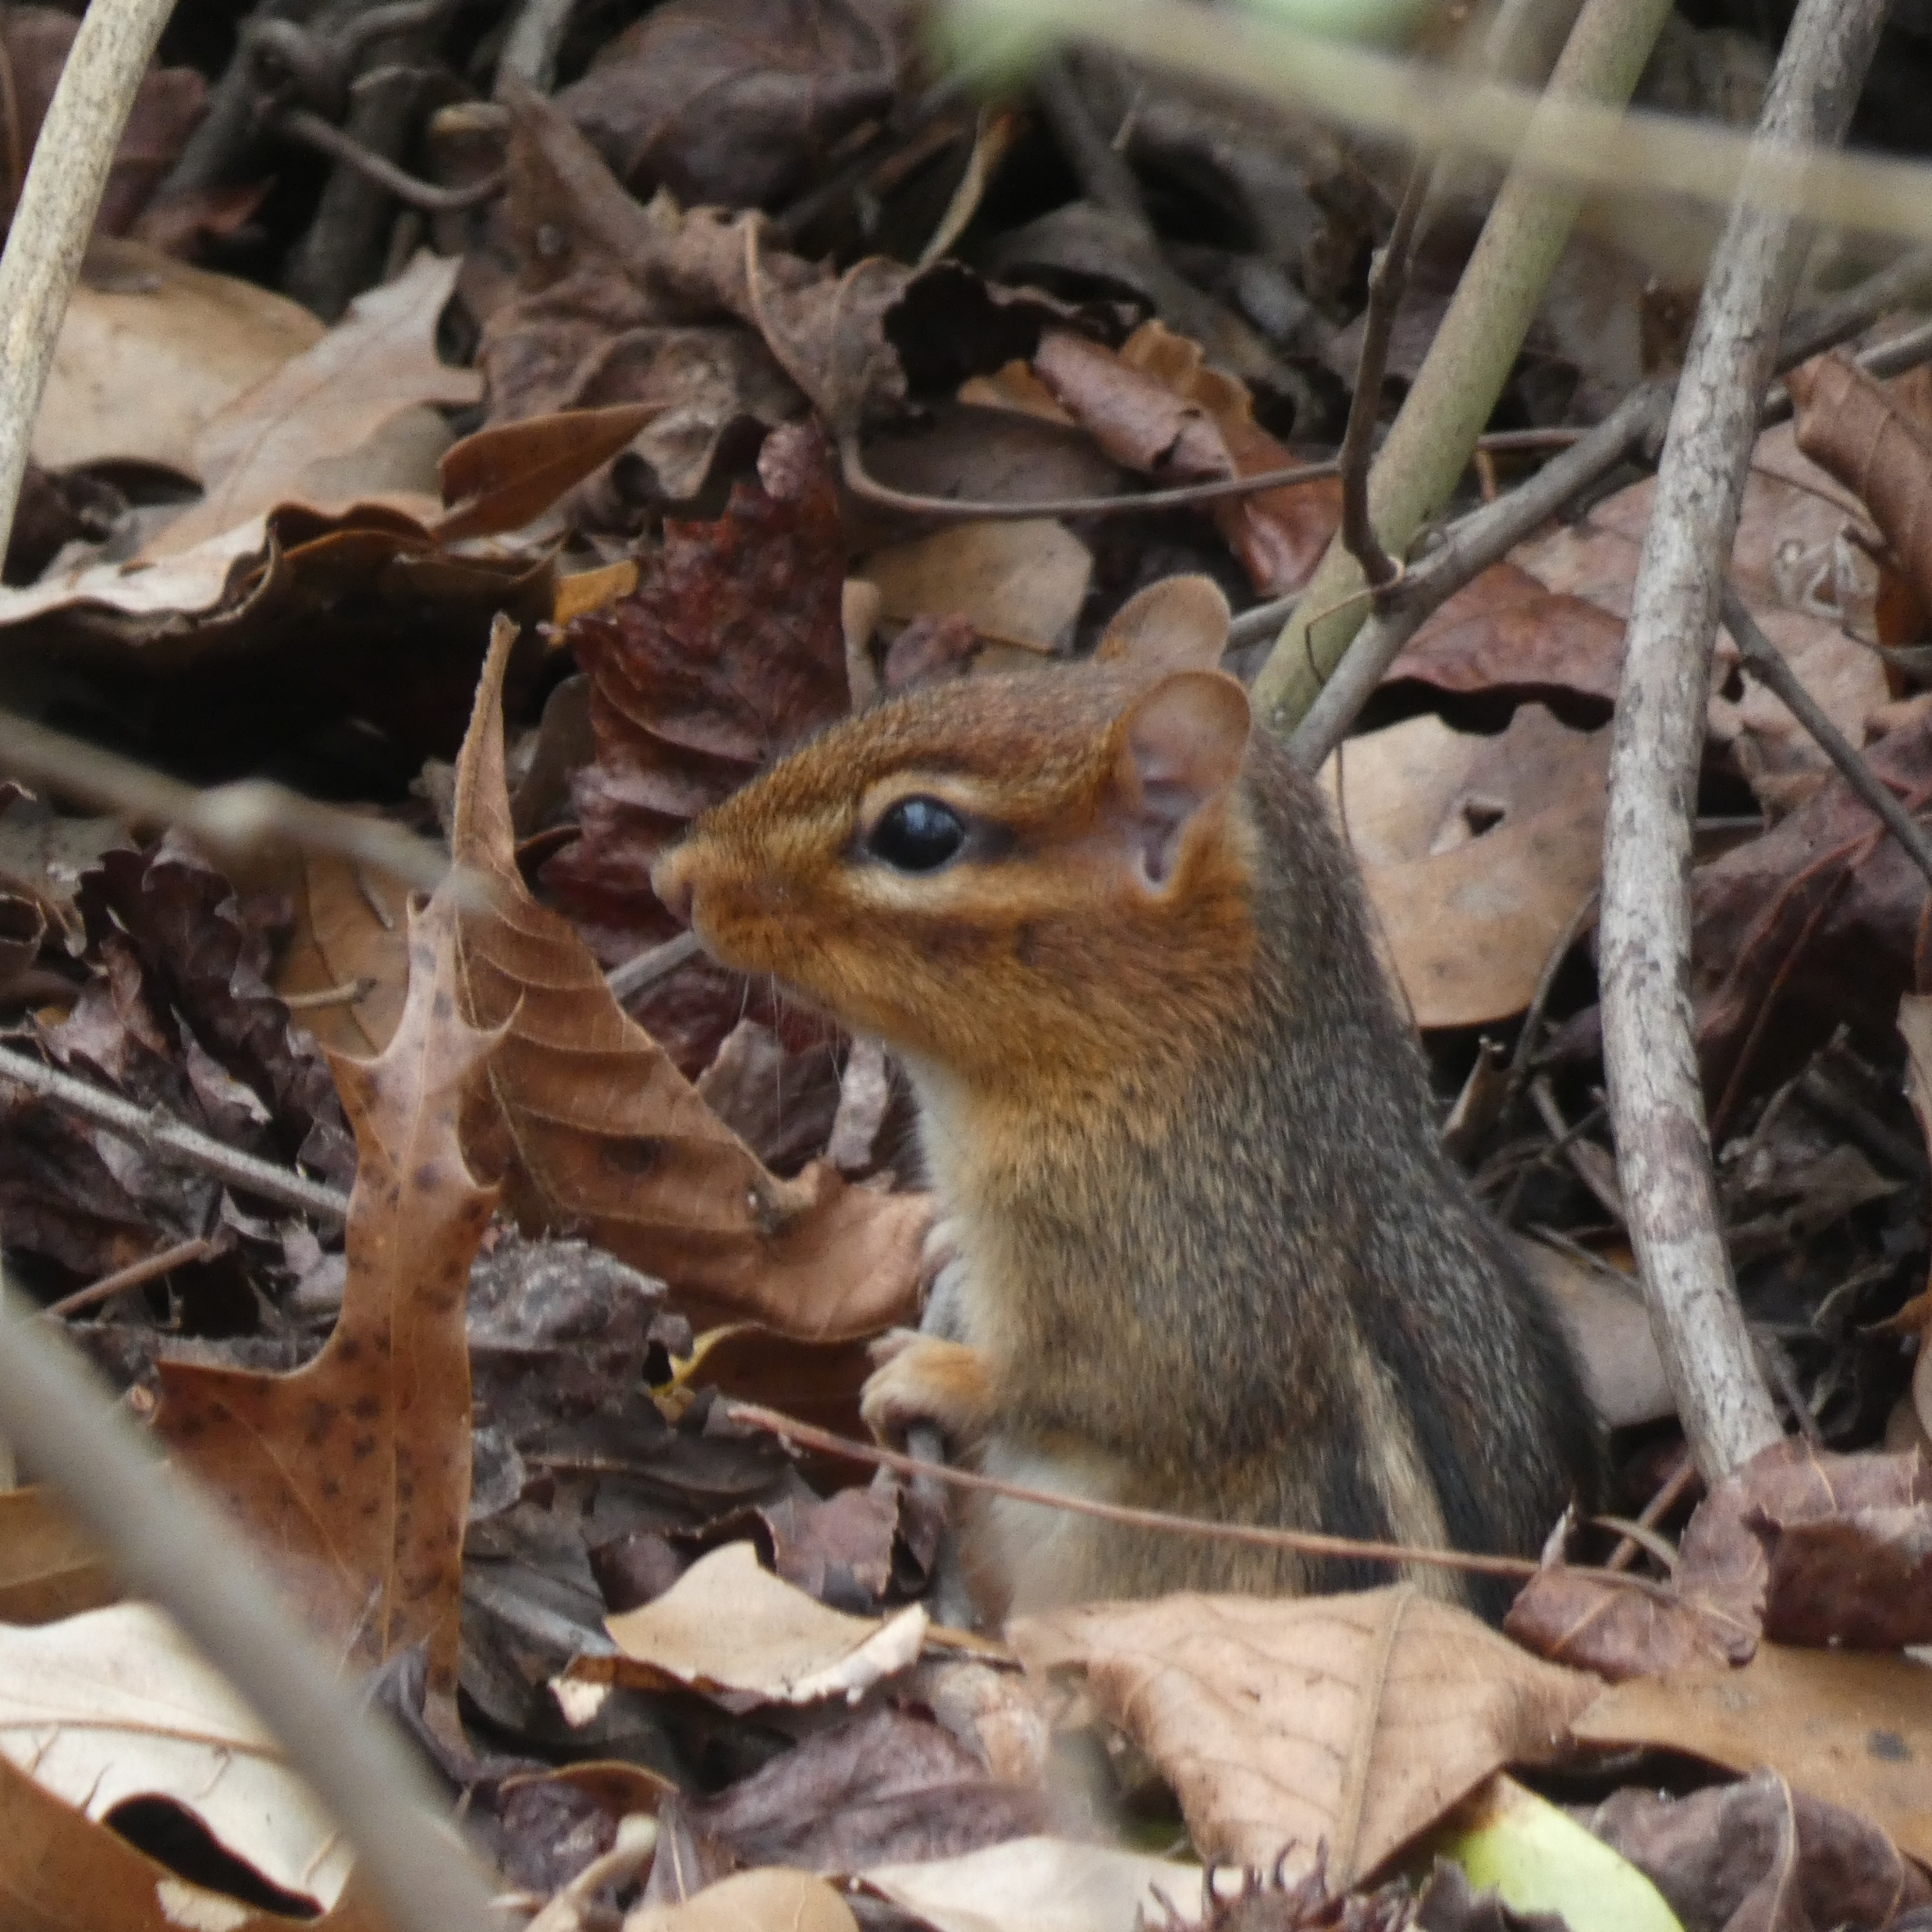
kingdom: Animalia
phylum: Chordata
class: Mammalia
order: Rodentia
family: Sciuridae
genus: Tamias
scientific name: Tamias striatus
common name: Eastern chipmunk
